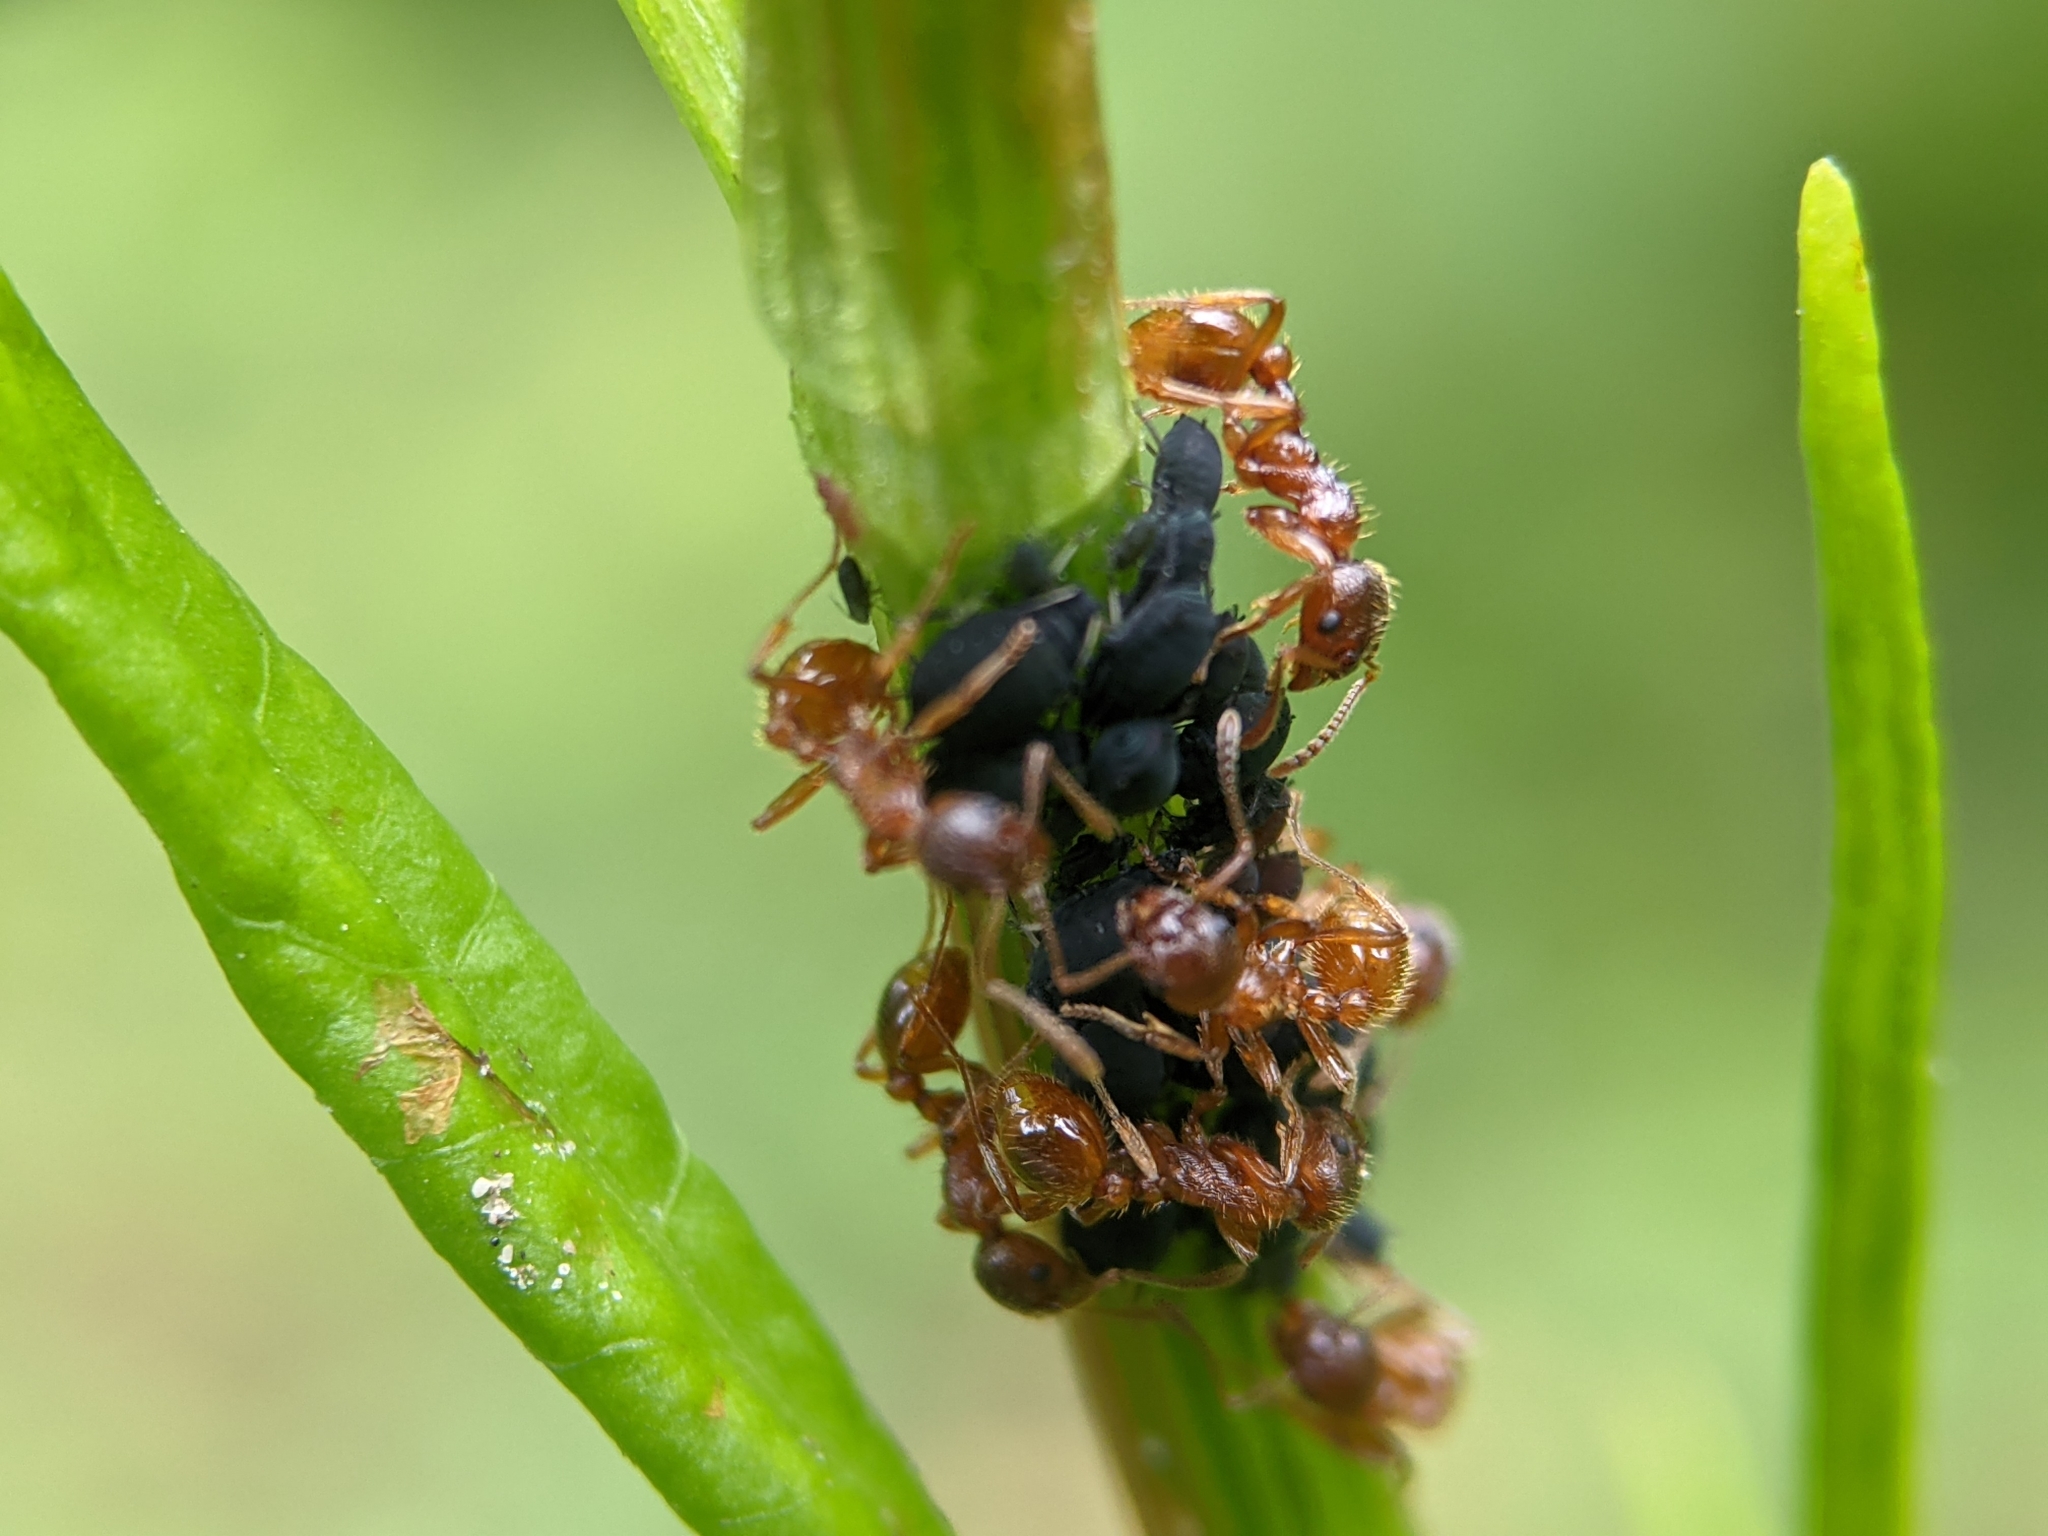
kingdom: Animalia
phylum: Arthropoda
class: Insecta
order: Hymenoptera
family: Formicidae
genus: Myrmica
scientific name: Myrmica rubra
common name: European fire ant
